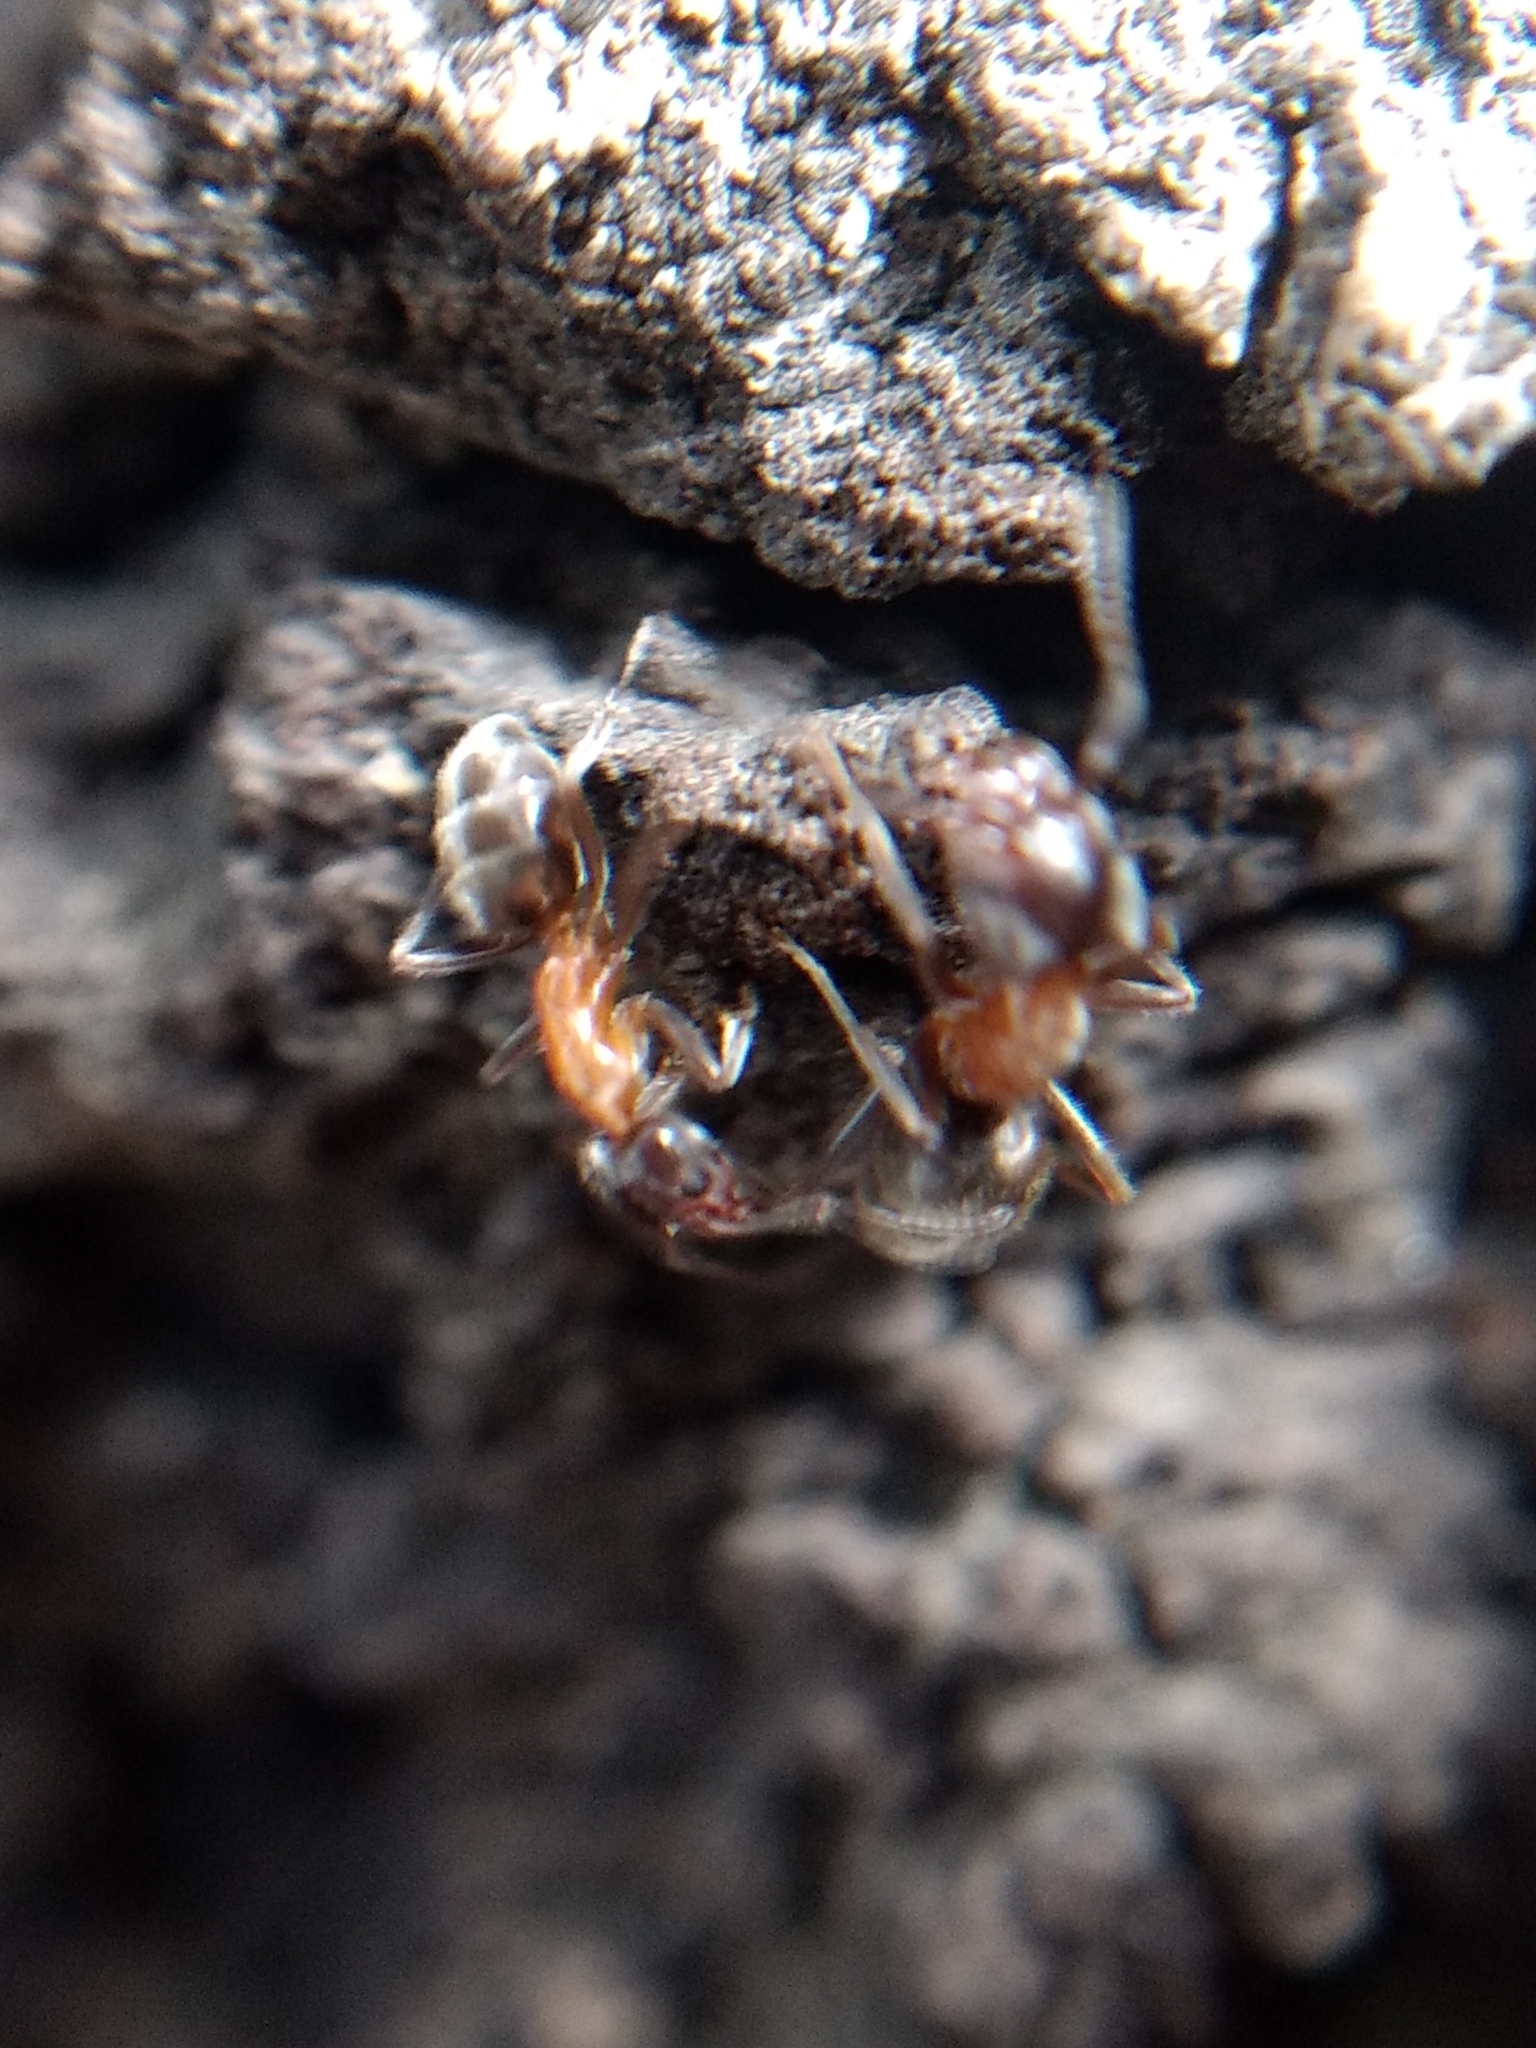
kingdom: Animalia
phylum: Arthropoda
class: Insecta
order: Hymenoptera
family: Formicidae
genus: Liometopum
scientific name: Liometopum occidentale
